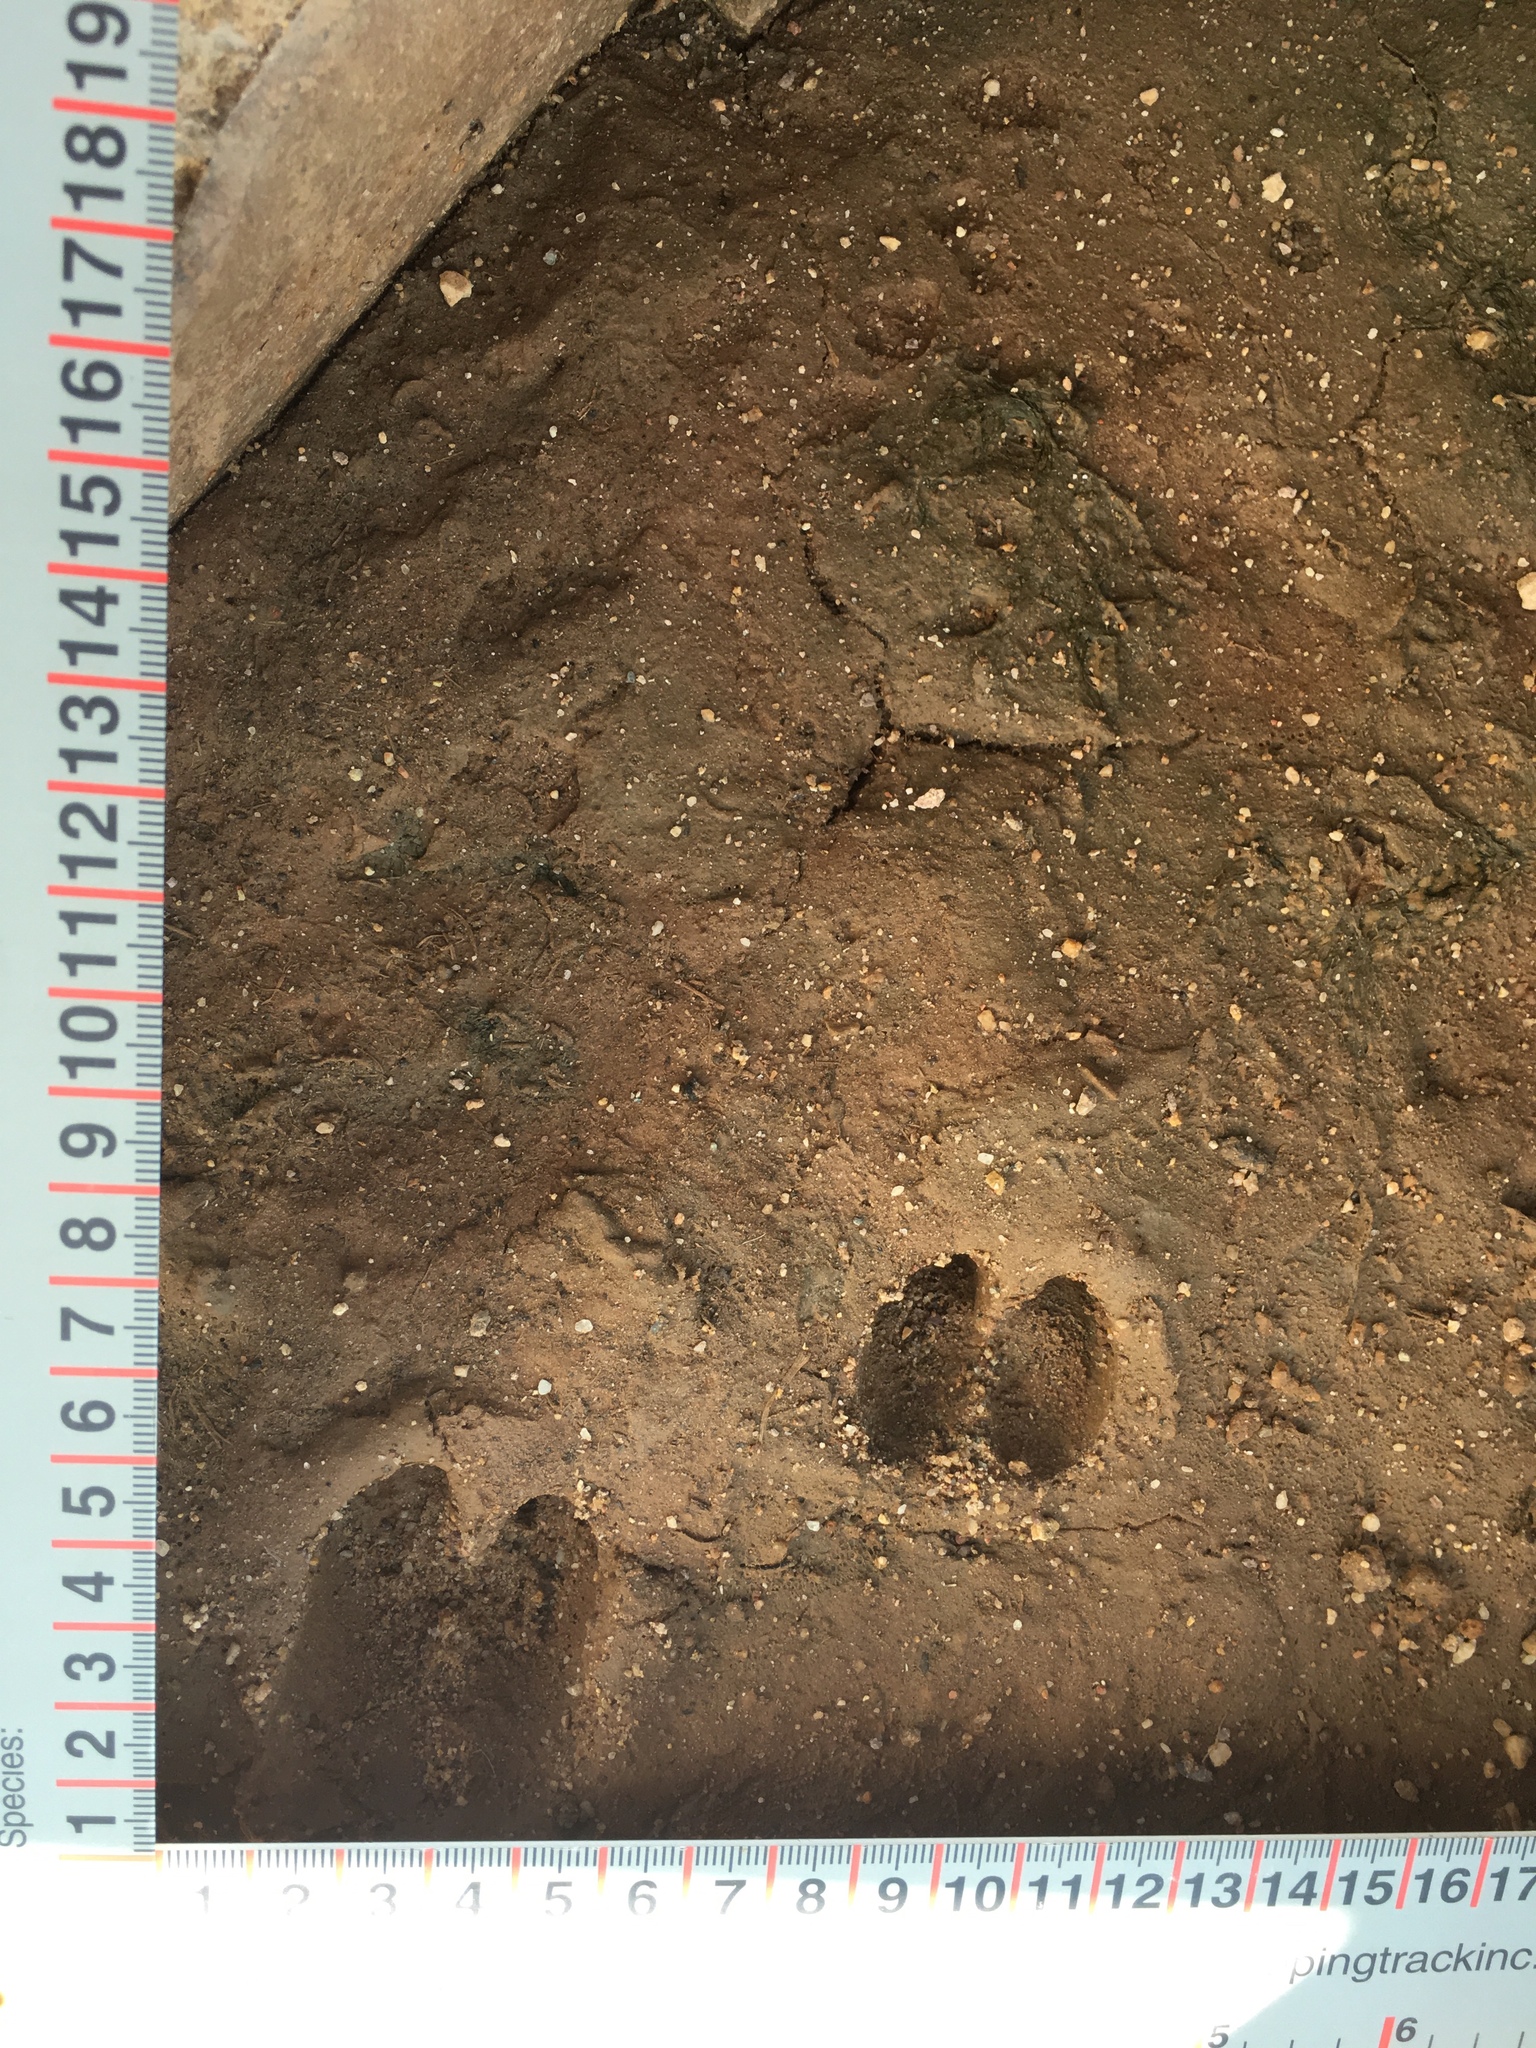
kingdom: Animalia
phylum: Chordata
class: Mammalia
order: Artiodactyla
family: Tayassuidae
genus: Pecari
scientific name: Pecari tajacu
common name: Collared peccary
